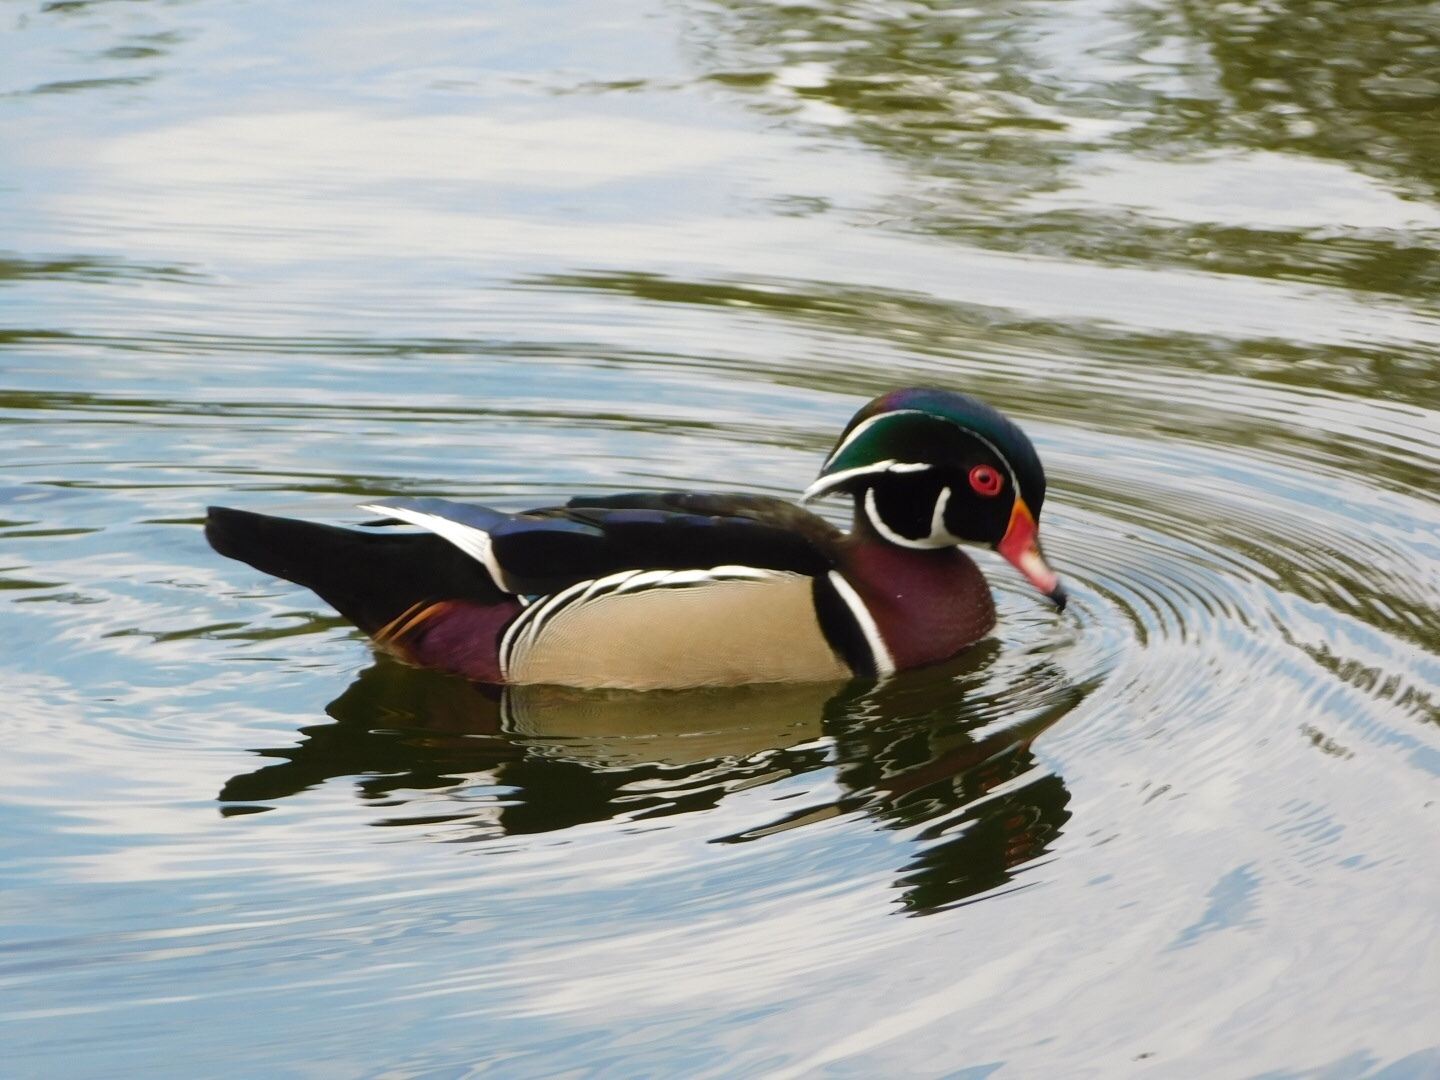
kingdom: Animalia
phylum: Chordata
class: Aves
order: Anseriformes
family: Anatidae
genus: Aix
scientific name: Aix sponsa
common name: Wood duck
